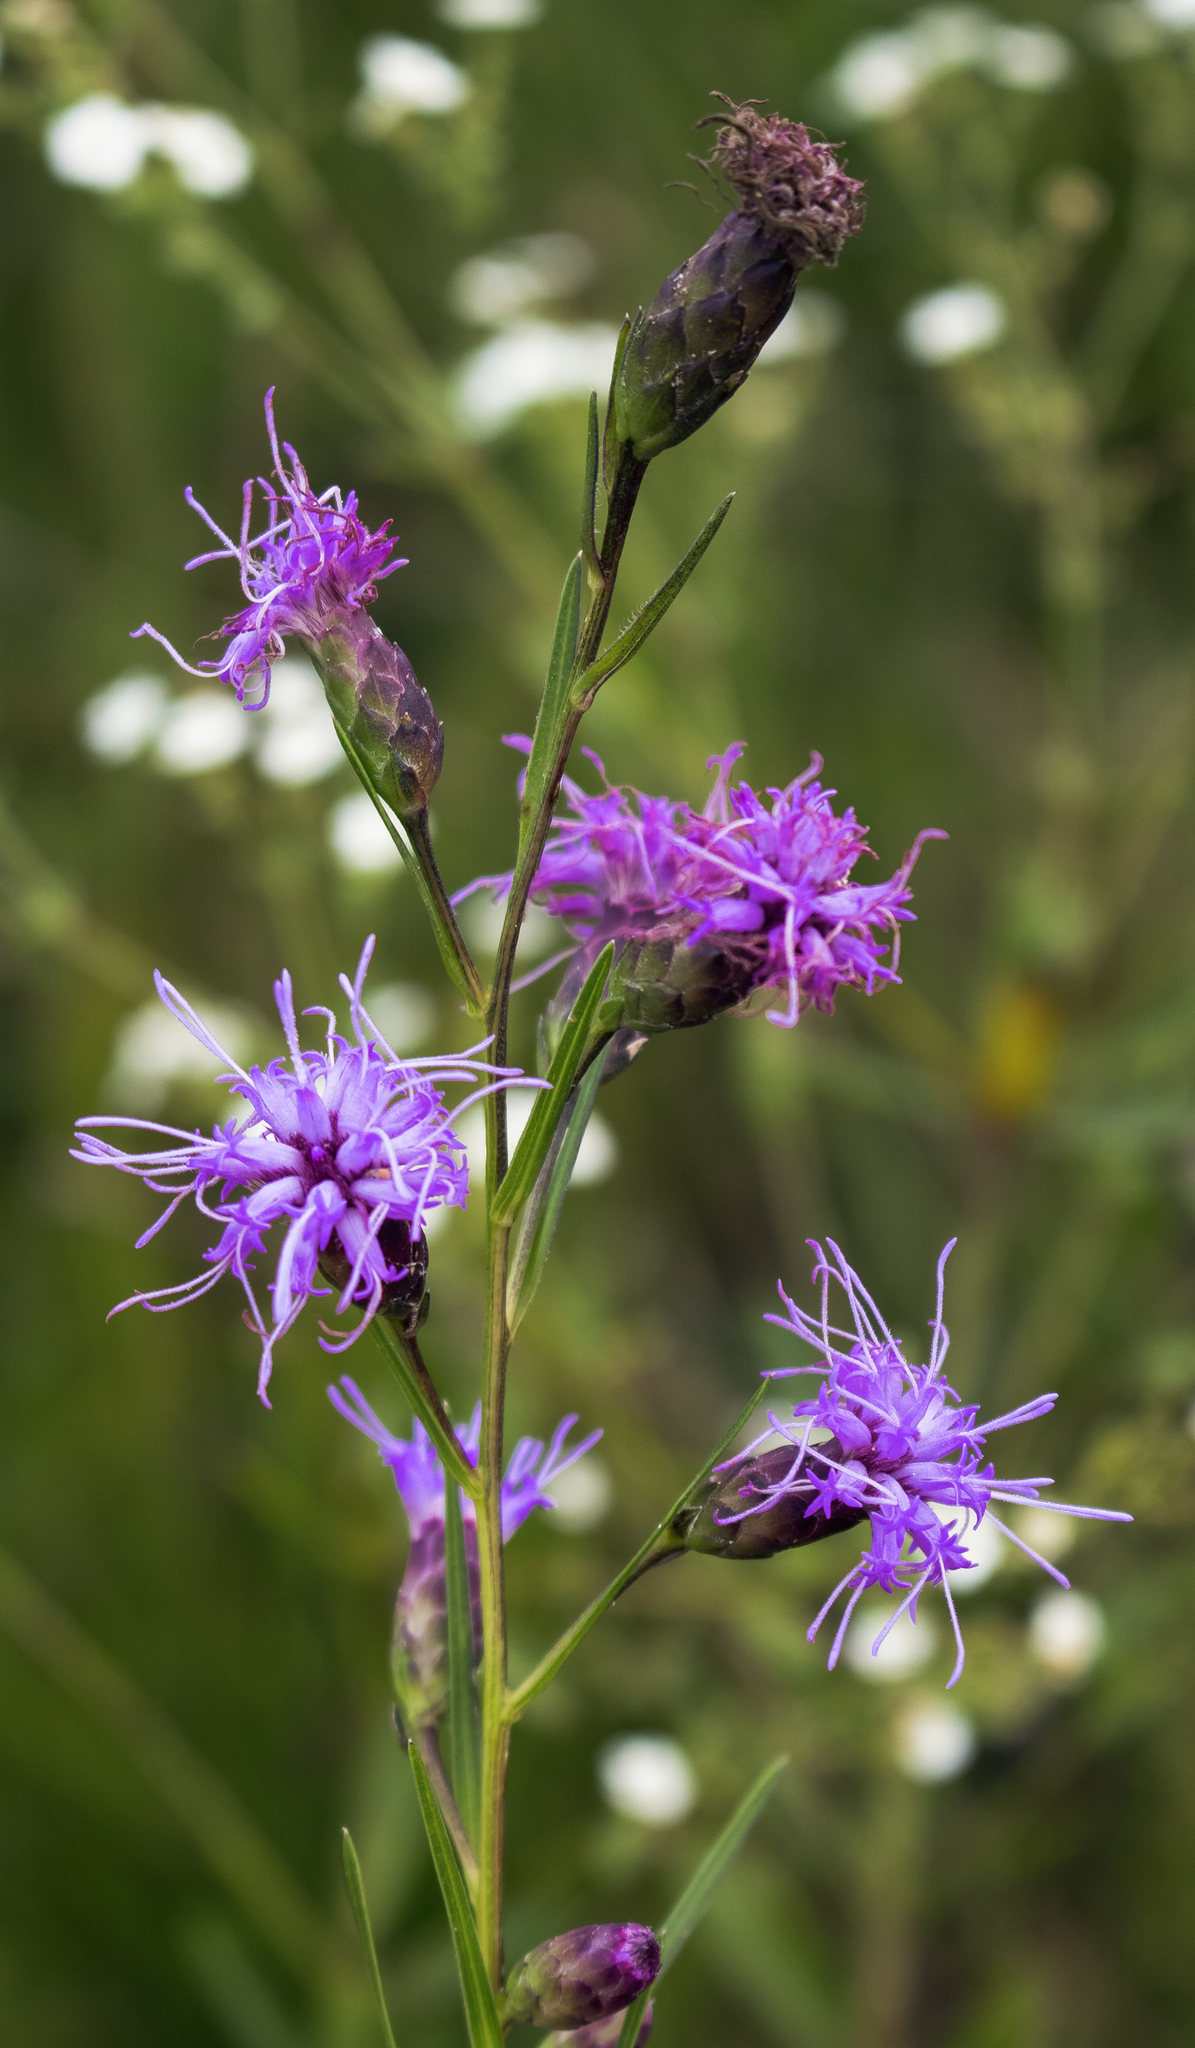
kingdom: Plantae
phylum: Tracheophyta
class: Magnoliopsida
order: Asterales
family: Asteraceae
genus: Liatris
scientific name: Liatris cylindracea
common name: Few-head blazingstar
